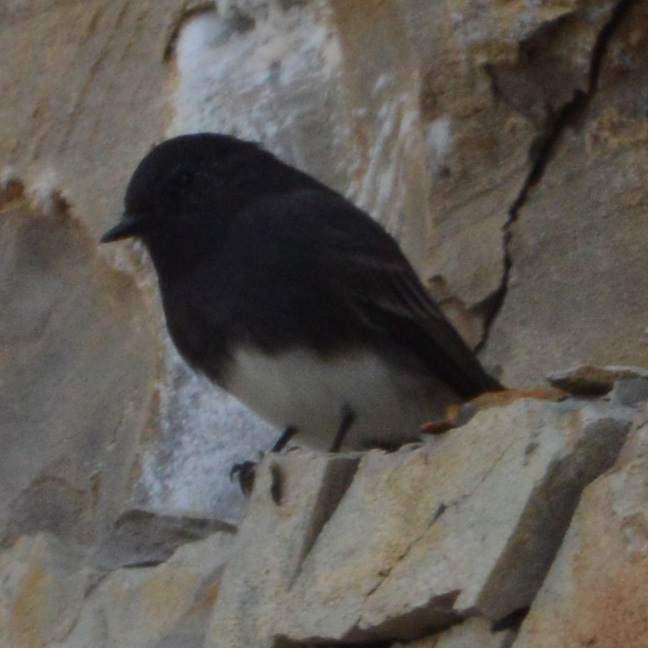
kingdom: Animalia
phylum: Chordata
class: Aves
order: Passeriformes
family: Tyrannidae
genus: Sayornis
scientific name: Sayornis nigricans
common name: Black phoebe
